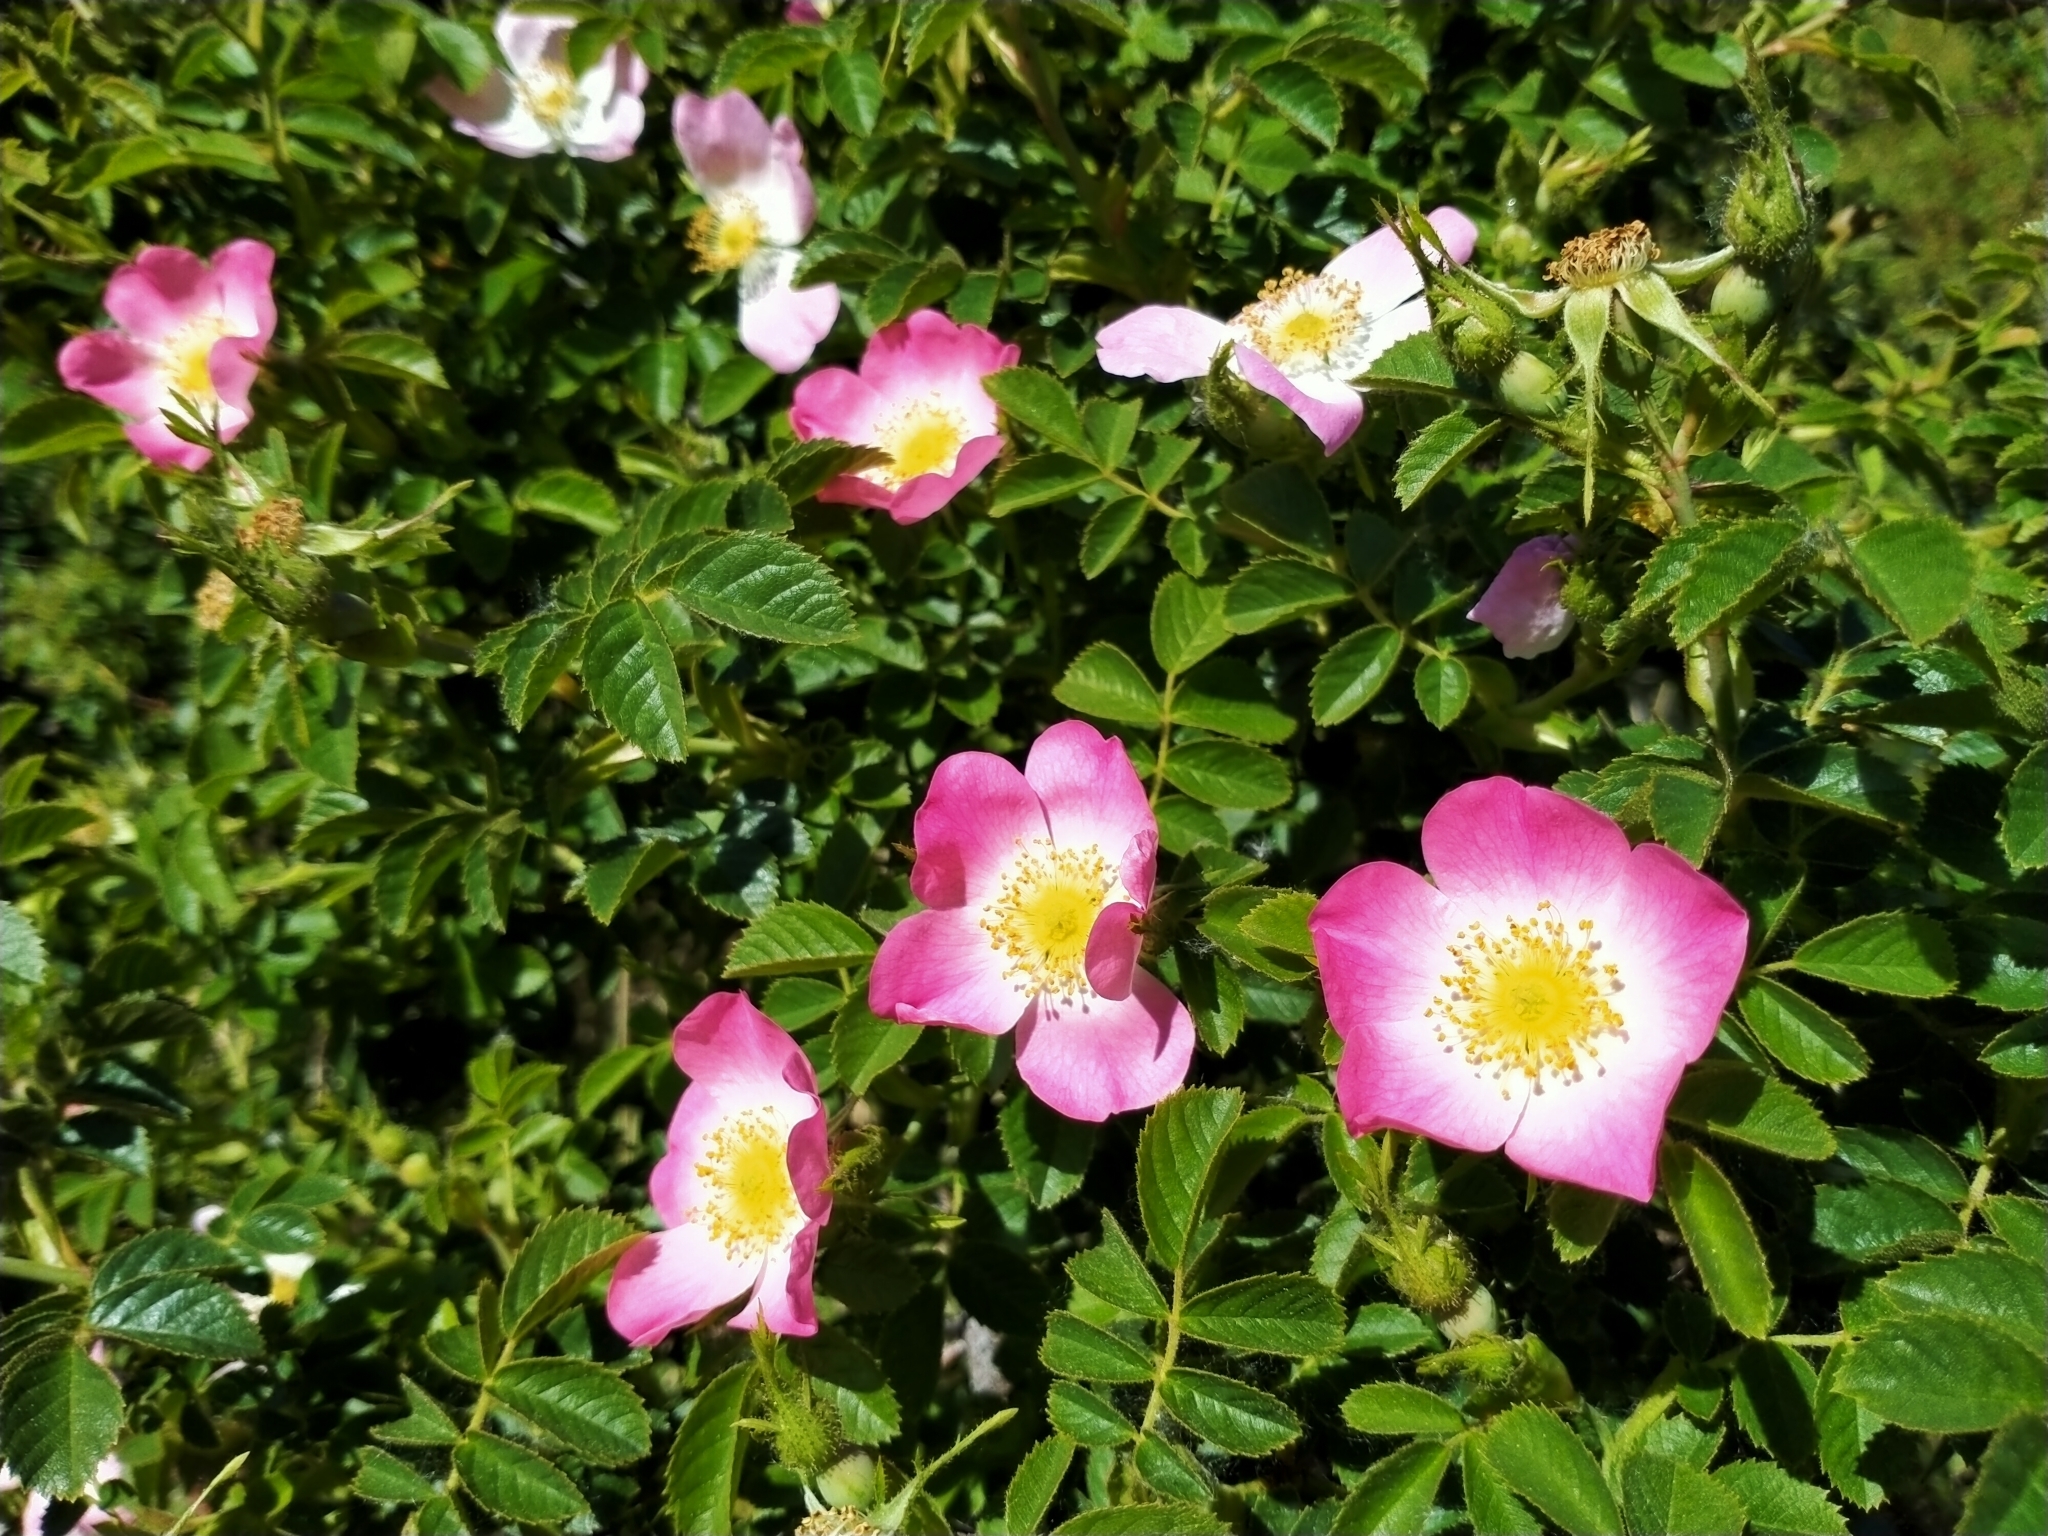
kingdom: Plantae
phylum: Tracheophyta
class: Magnoliopsida
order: Rosales
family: Rosaceae
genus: Rosa
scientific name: Rosa rubiginosa
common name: Sweet-briar
